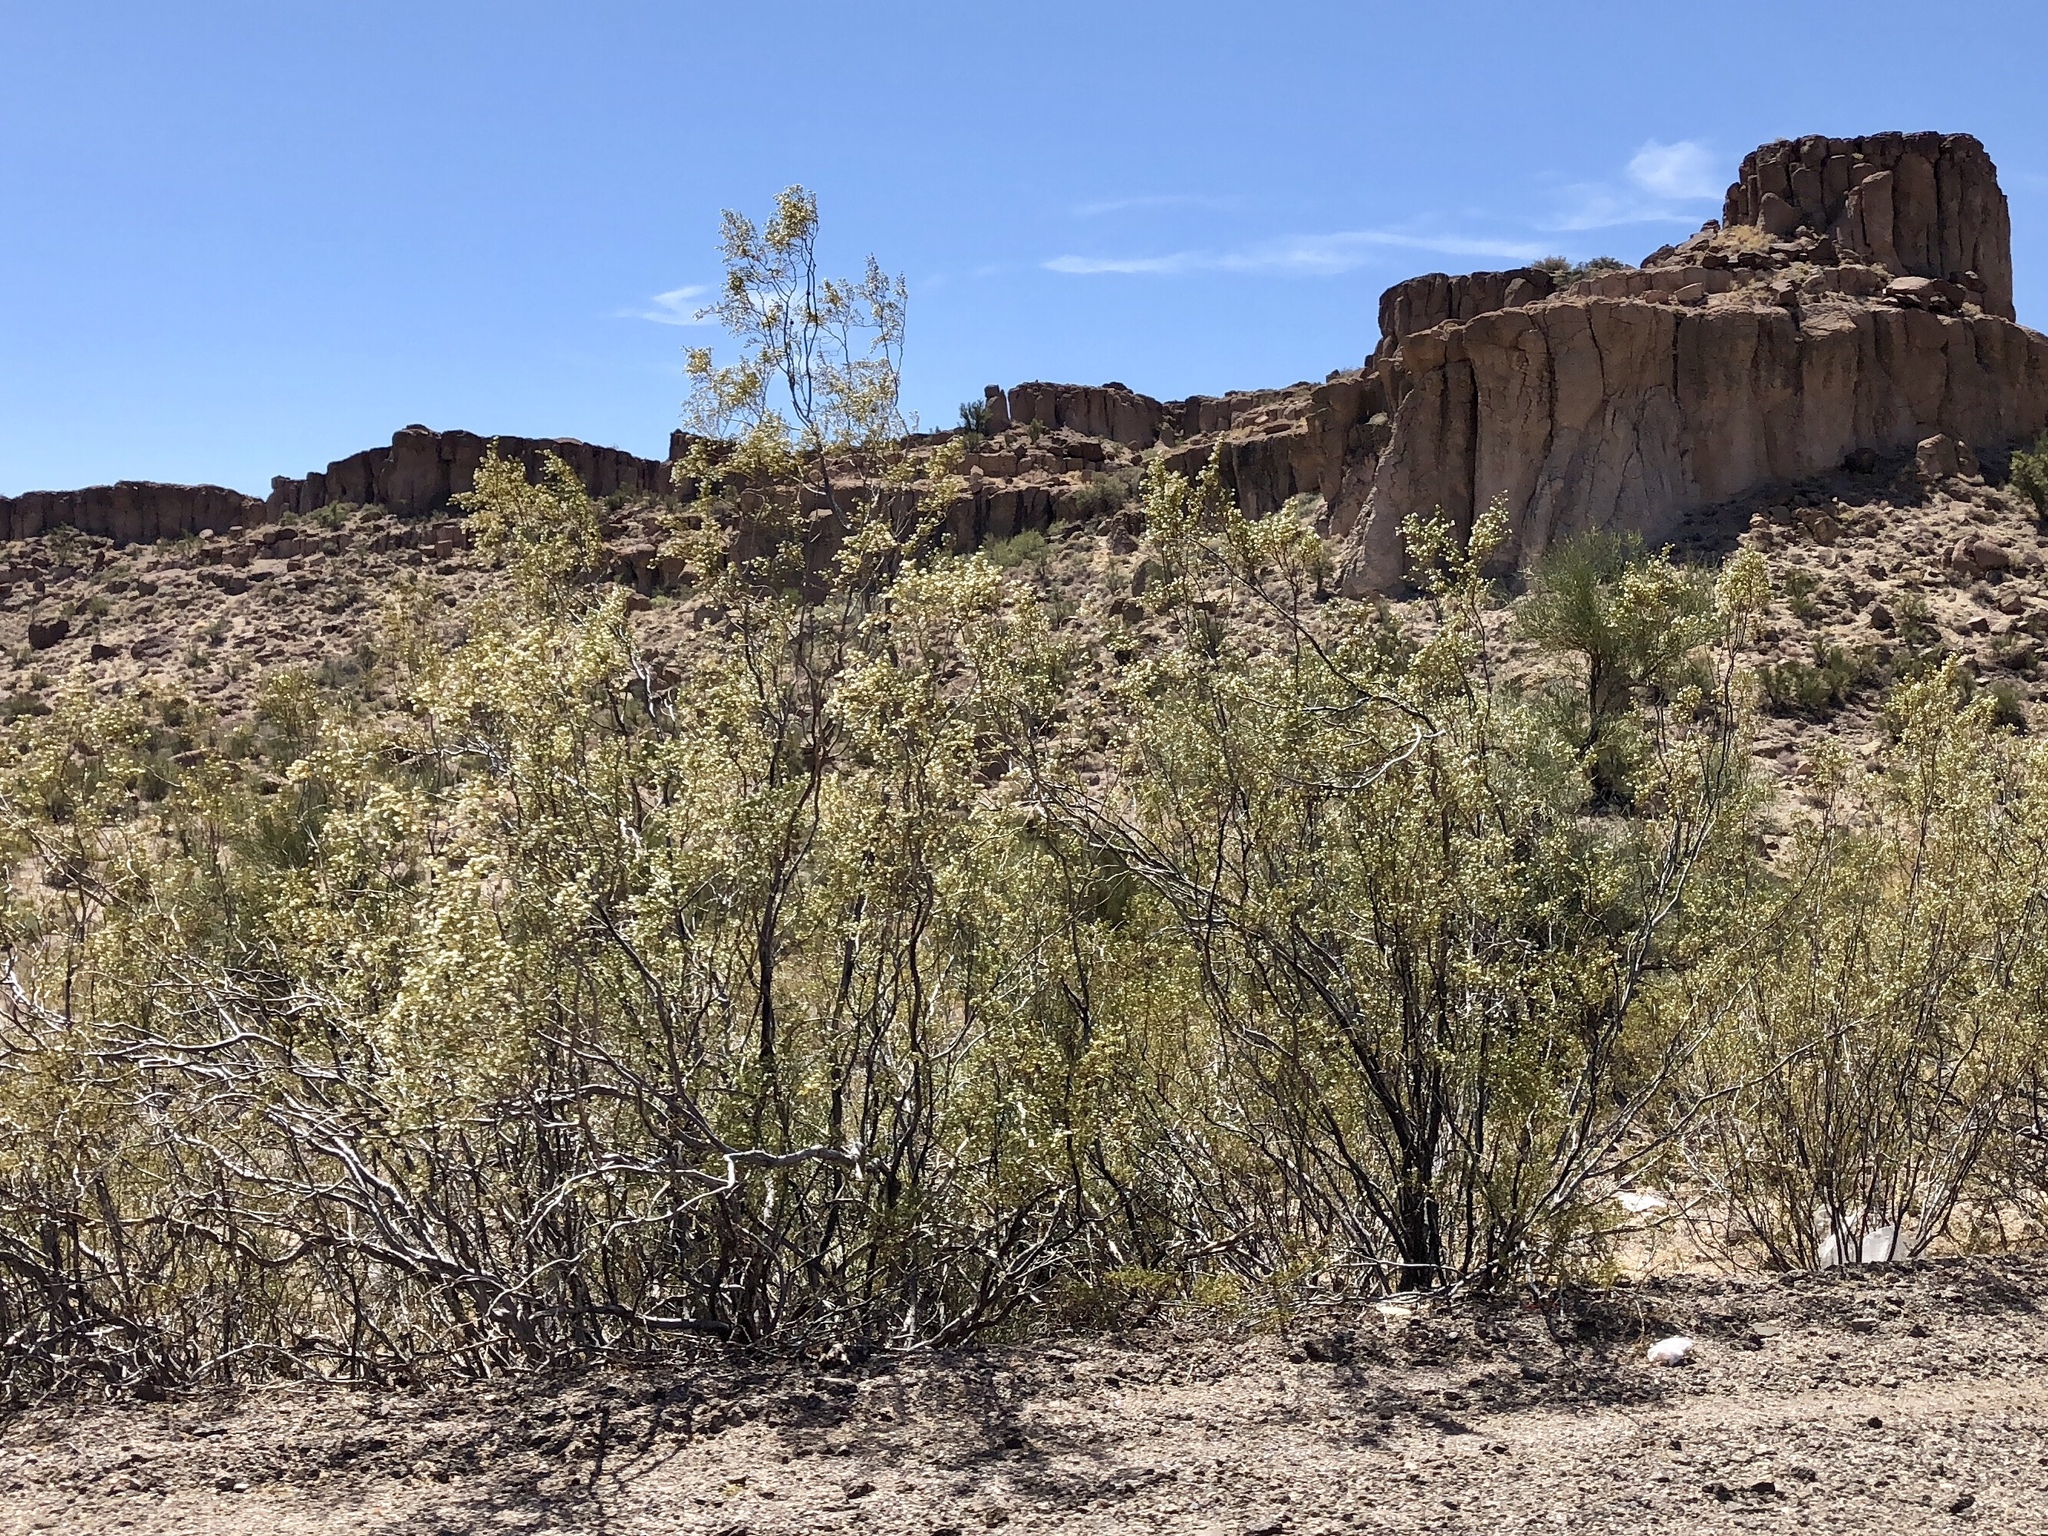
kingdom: Plantae
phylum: Tracheophyta
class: Magnoliopsida
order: Zygophyllales
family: Zygophyllaceae
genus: Larrea
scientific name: Larrea tridentata
